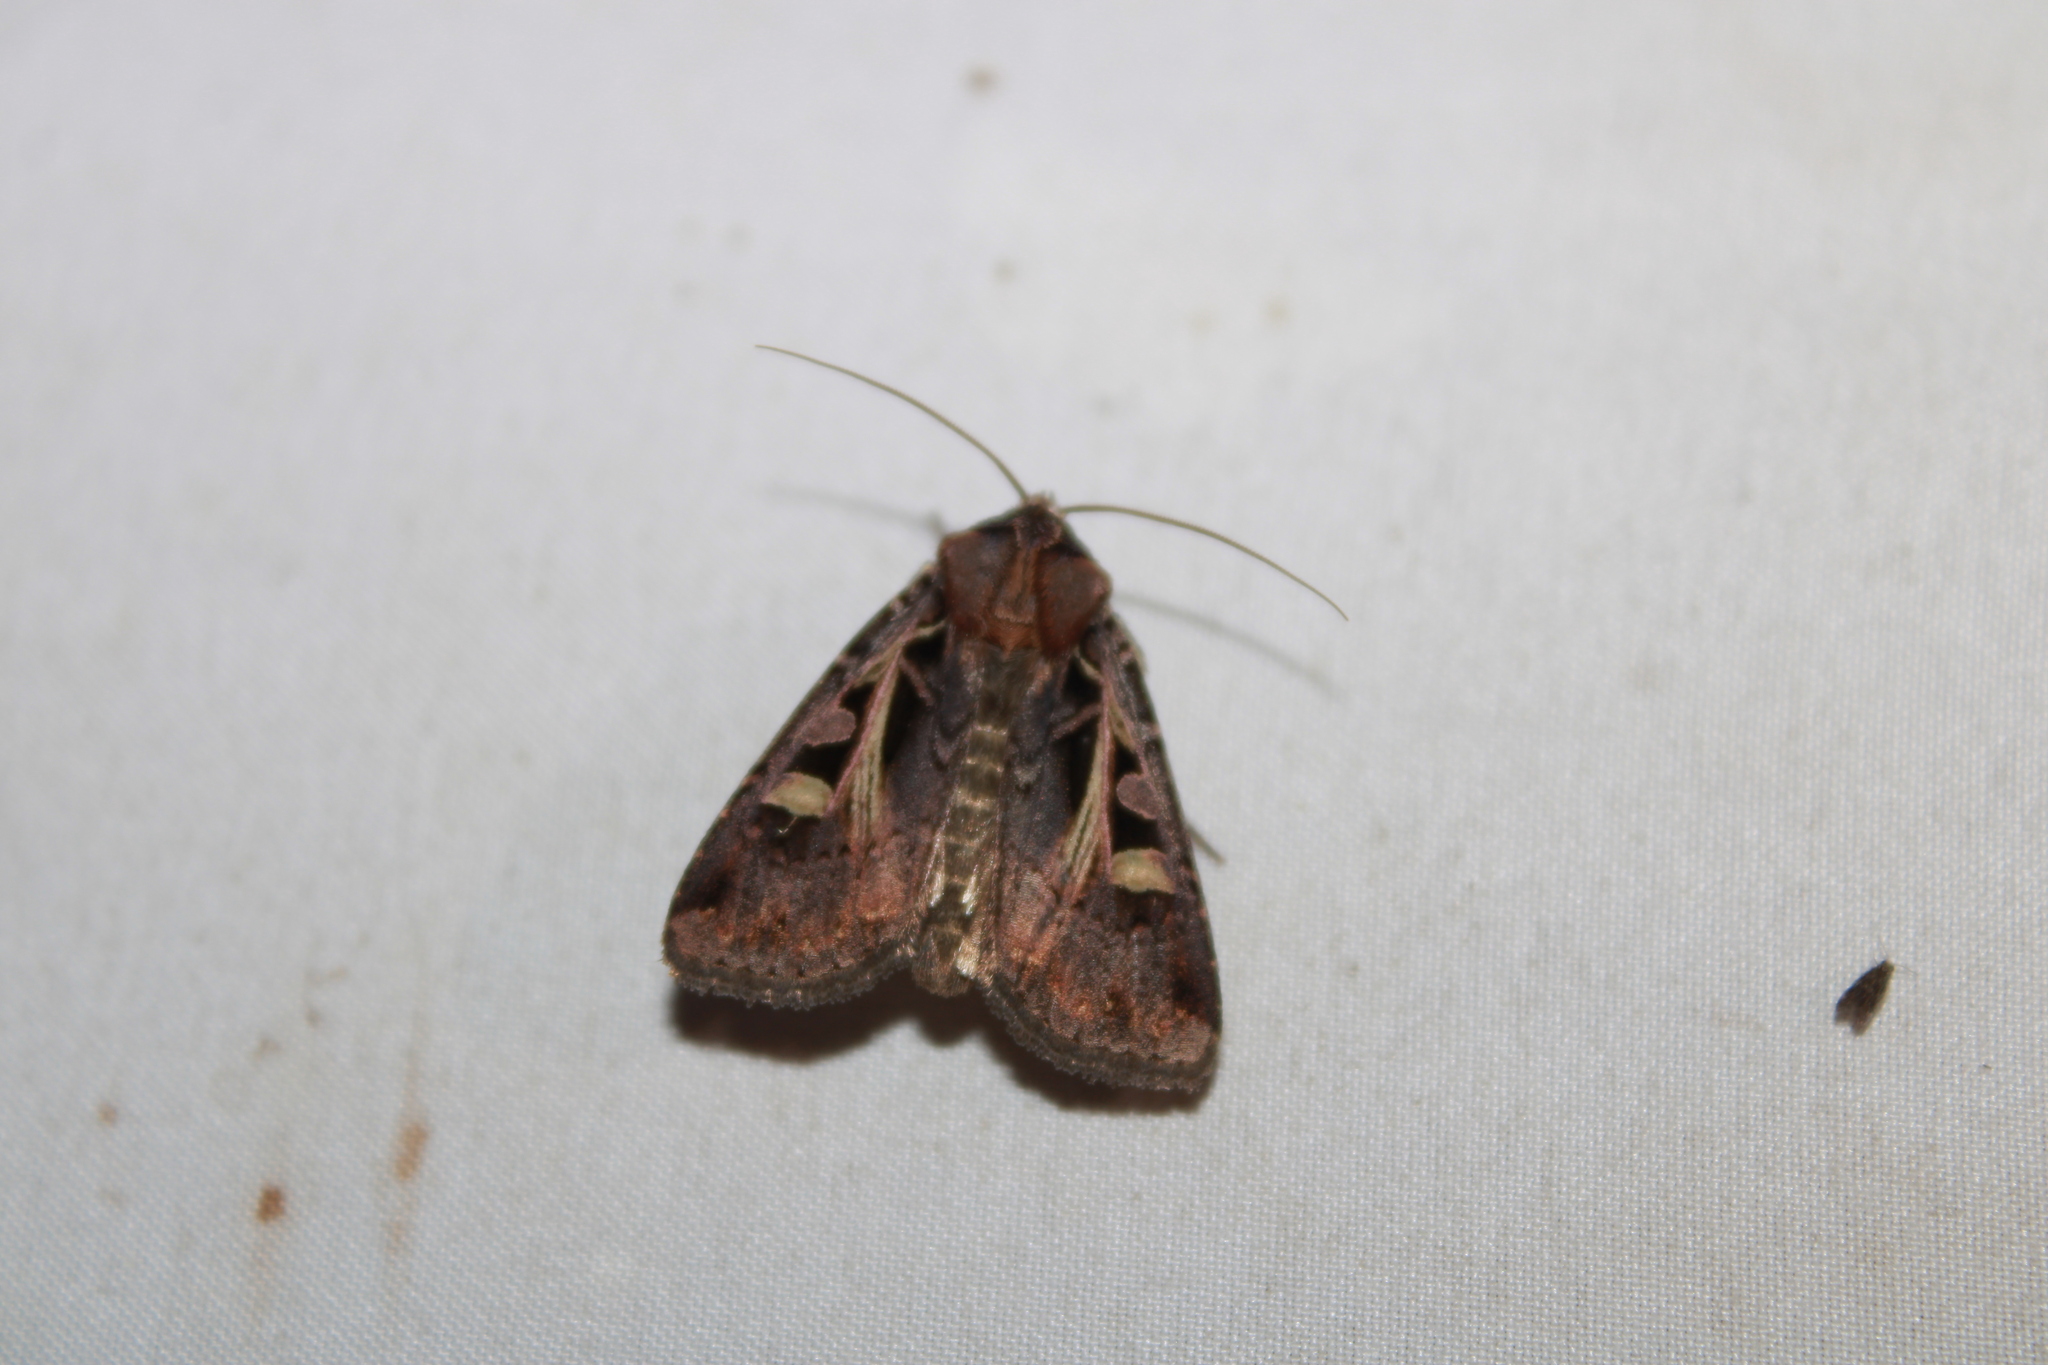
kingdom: Animalia
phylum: Arthropoda
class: Insecta
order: Lepidoptera
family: Noctuidae
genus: Feltia
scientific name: Feltia herilis
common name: Master's dart
